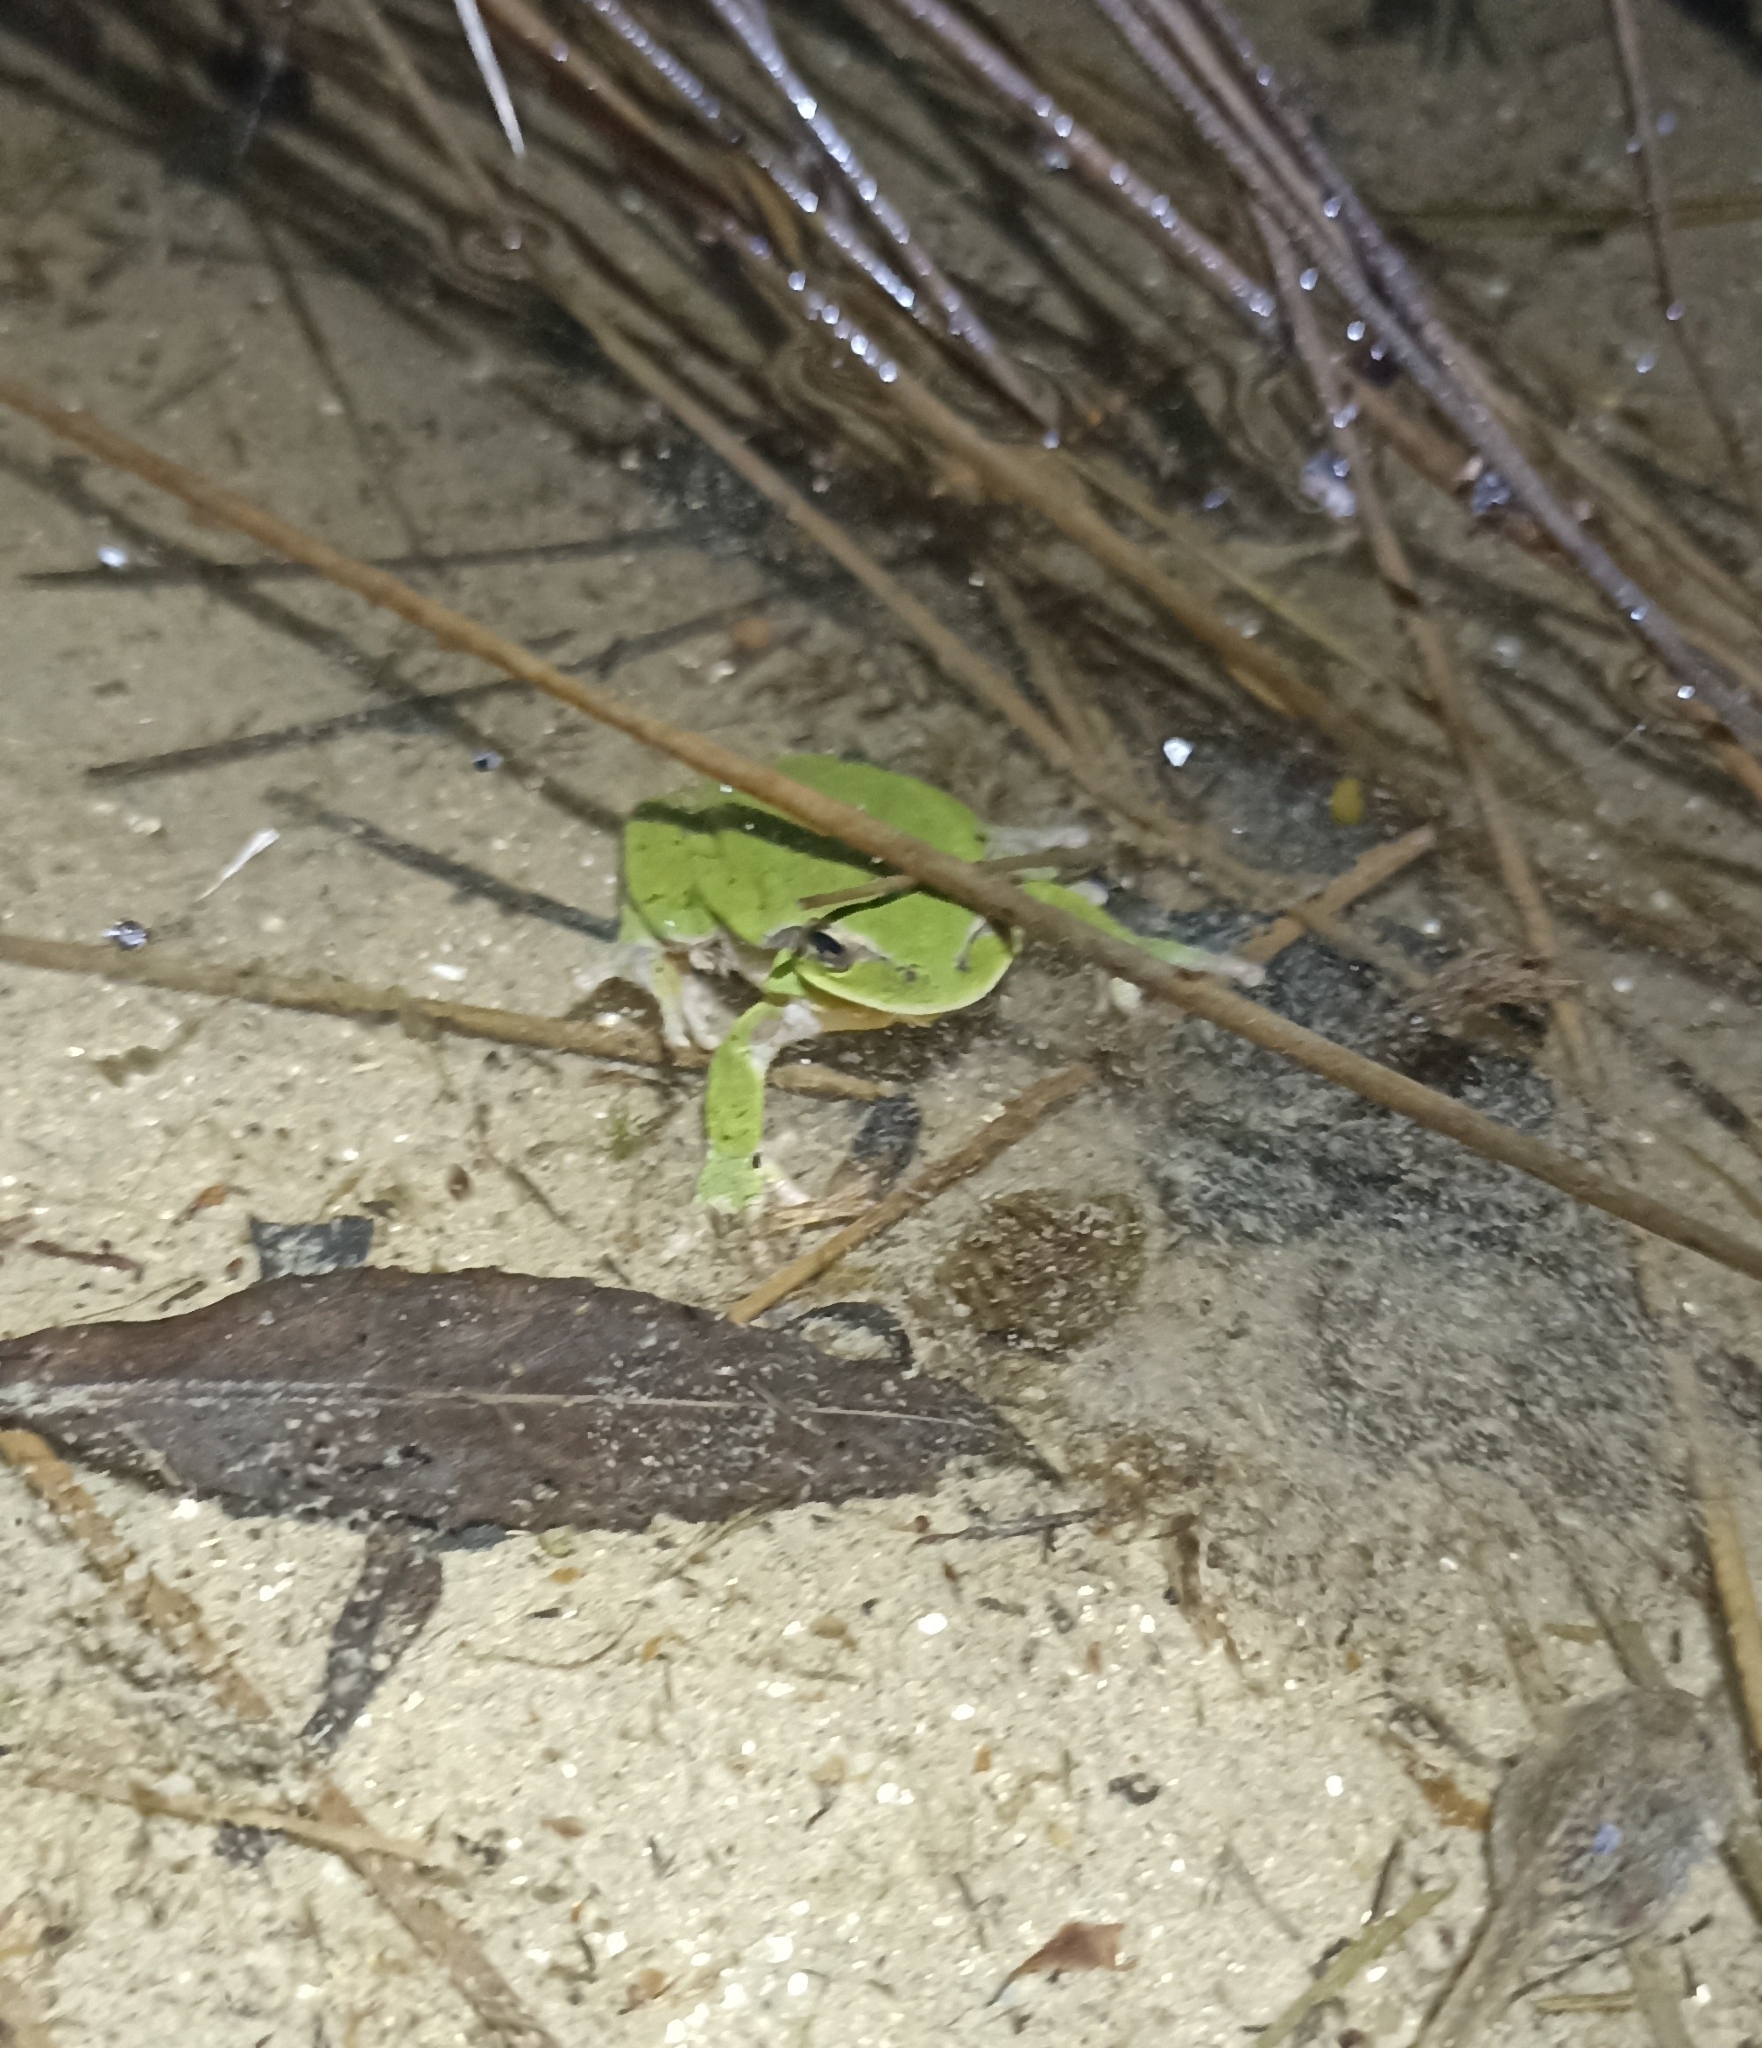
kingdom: Animalia
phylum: Chordata
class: Amphibia
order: Anura
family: Hylidae
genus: Hyla
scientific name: Hyla meridionalis
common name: Stripeless tree frog
